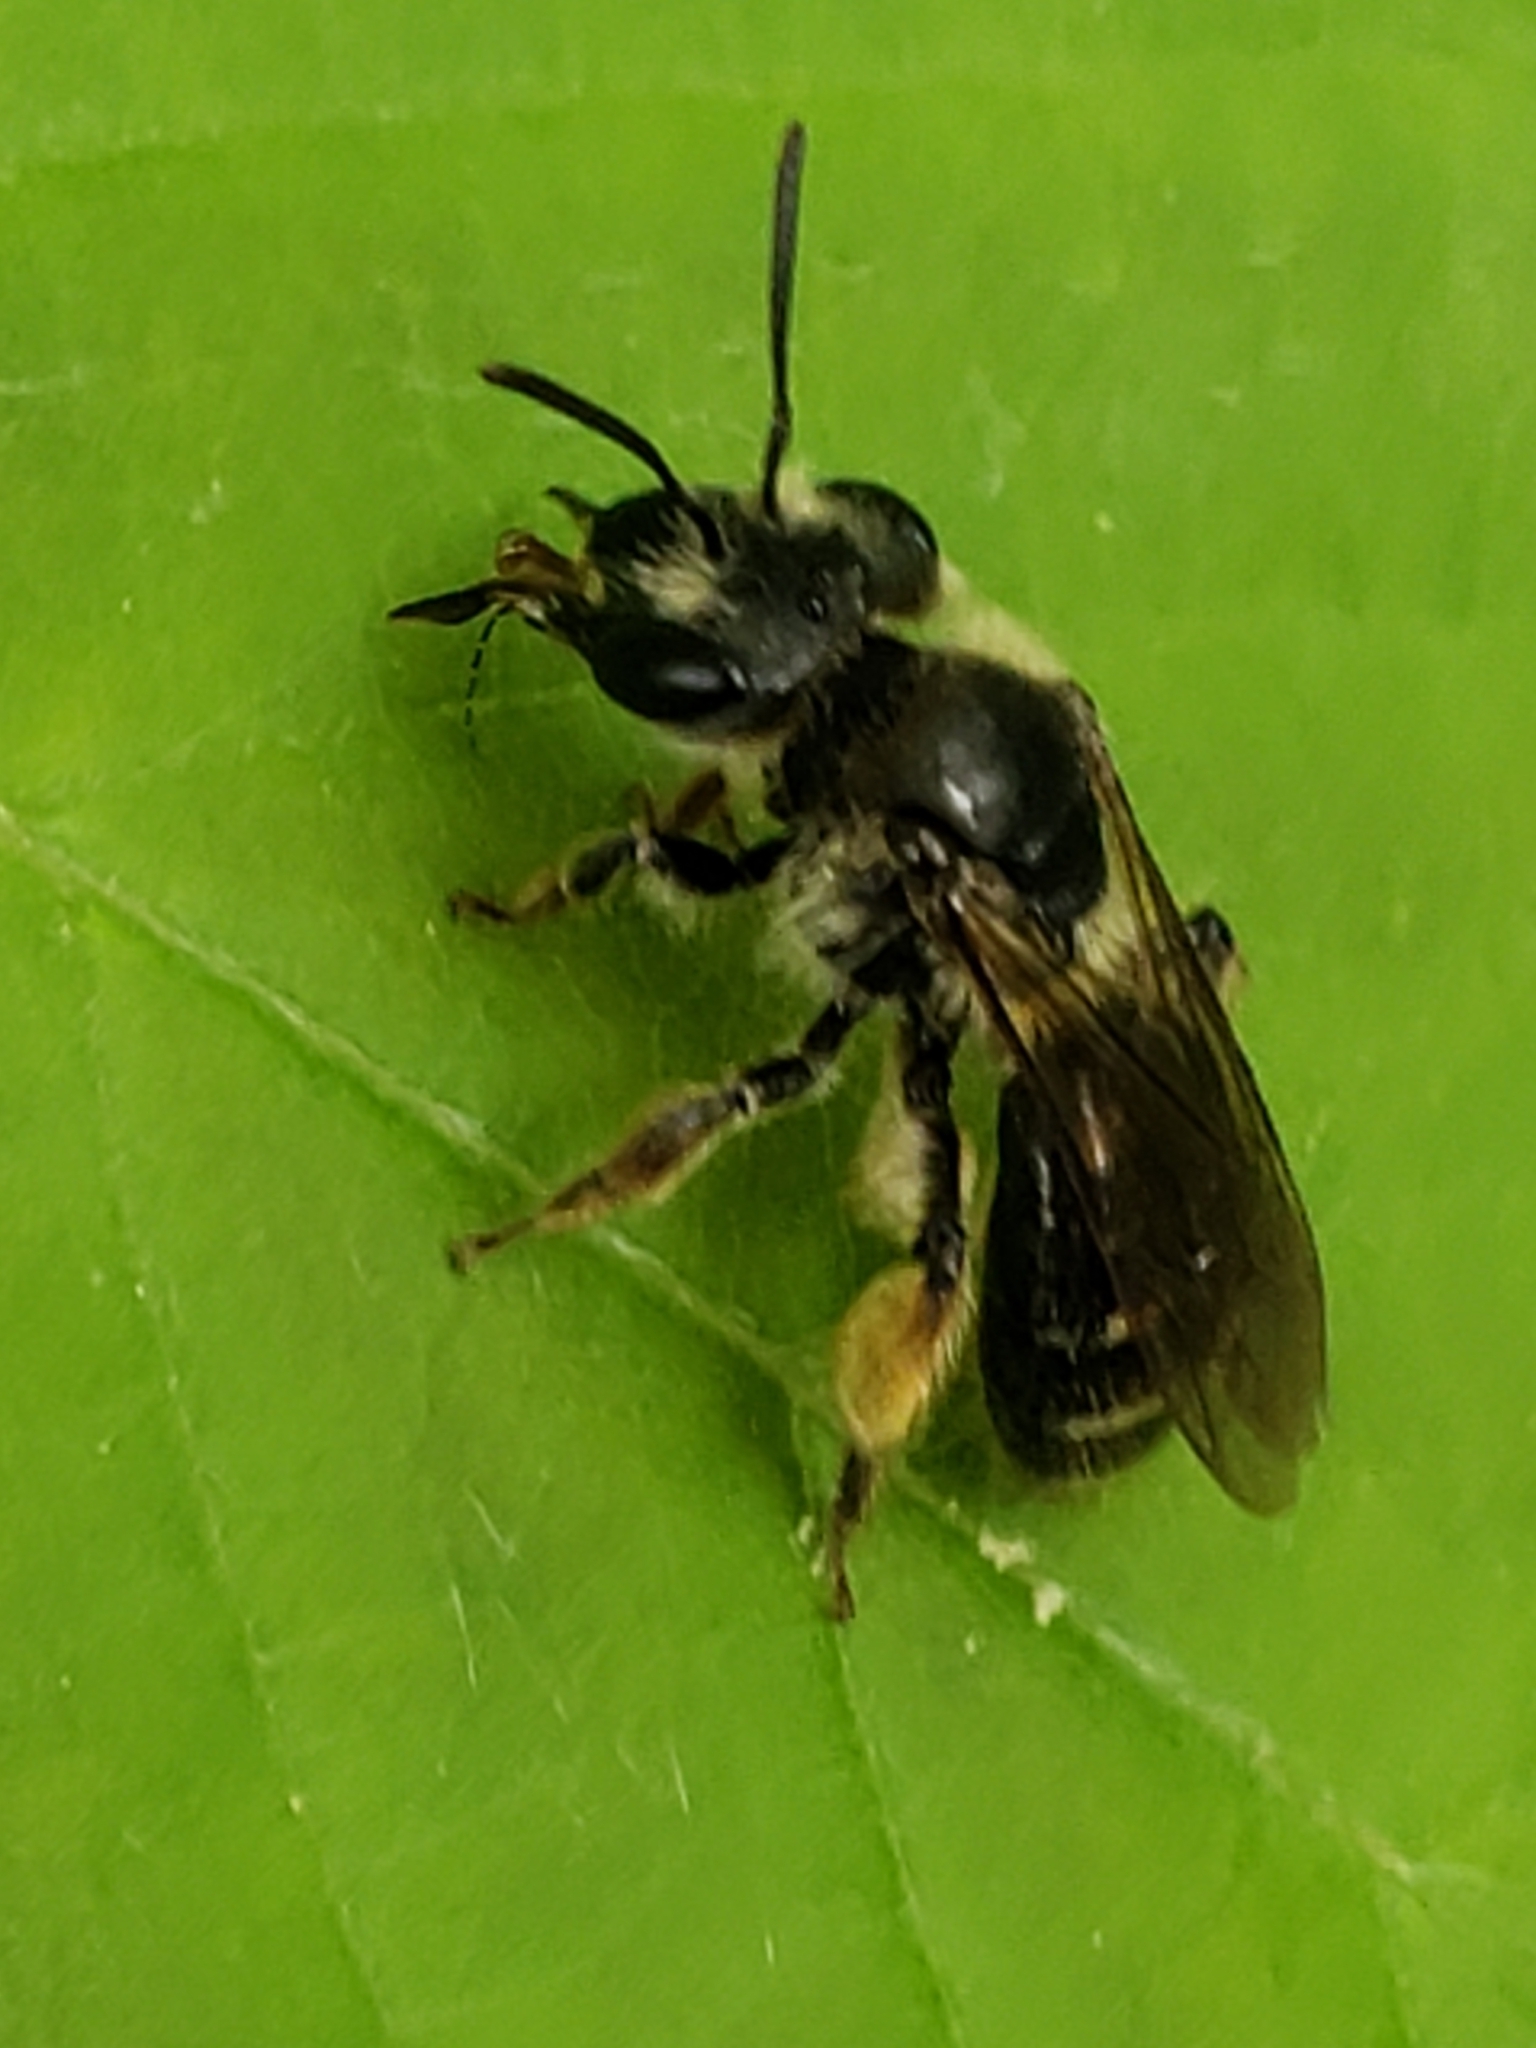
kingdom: Animalia
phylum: Arthropoda
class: Insecta
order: Hymenoptera
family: Andrenidae
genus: Andrena
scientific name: Andrena violae
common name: Violet miner
